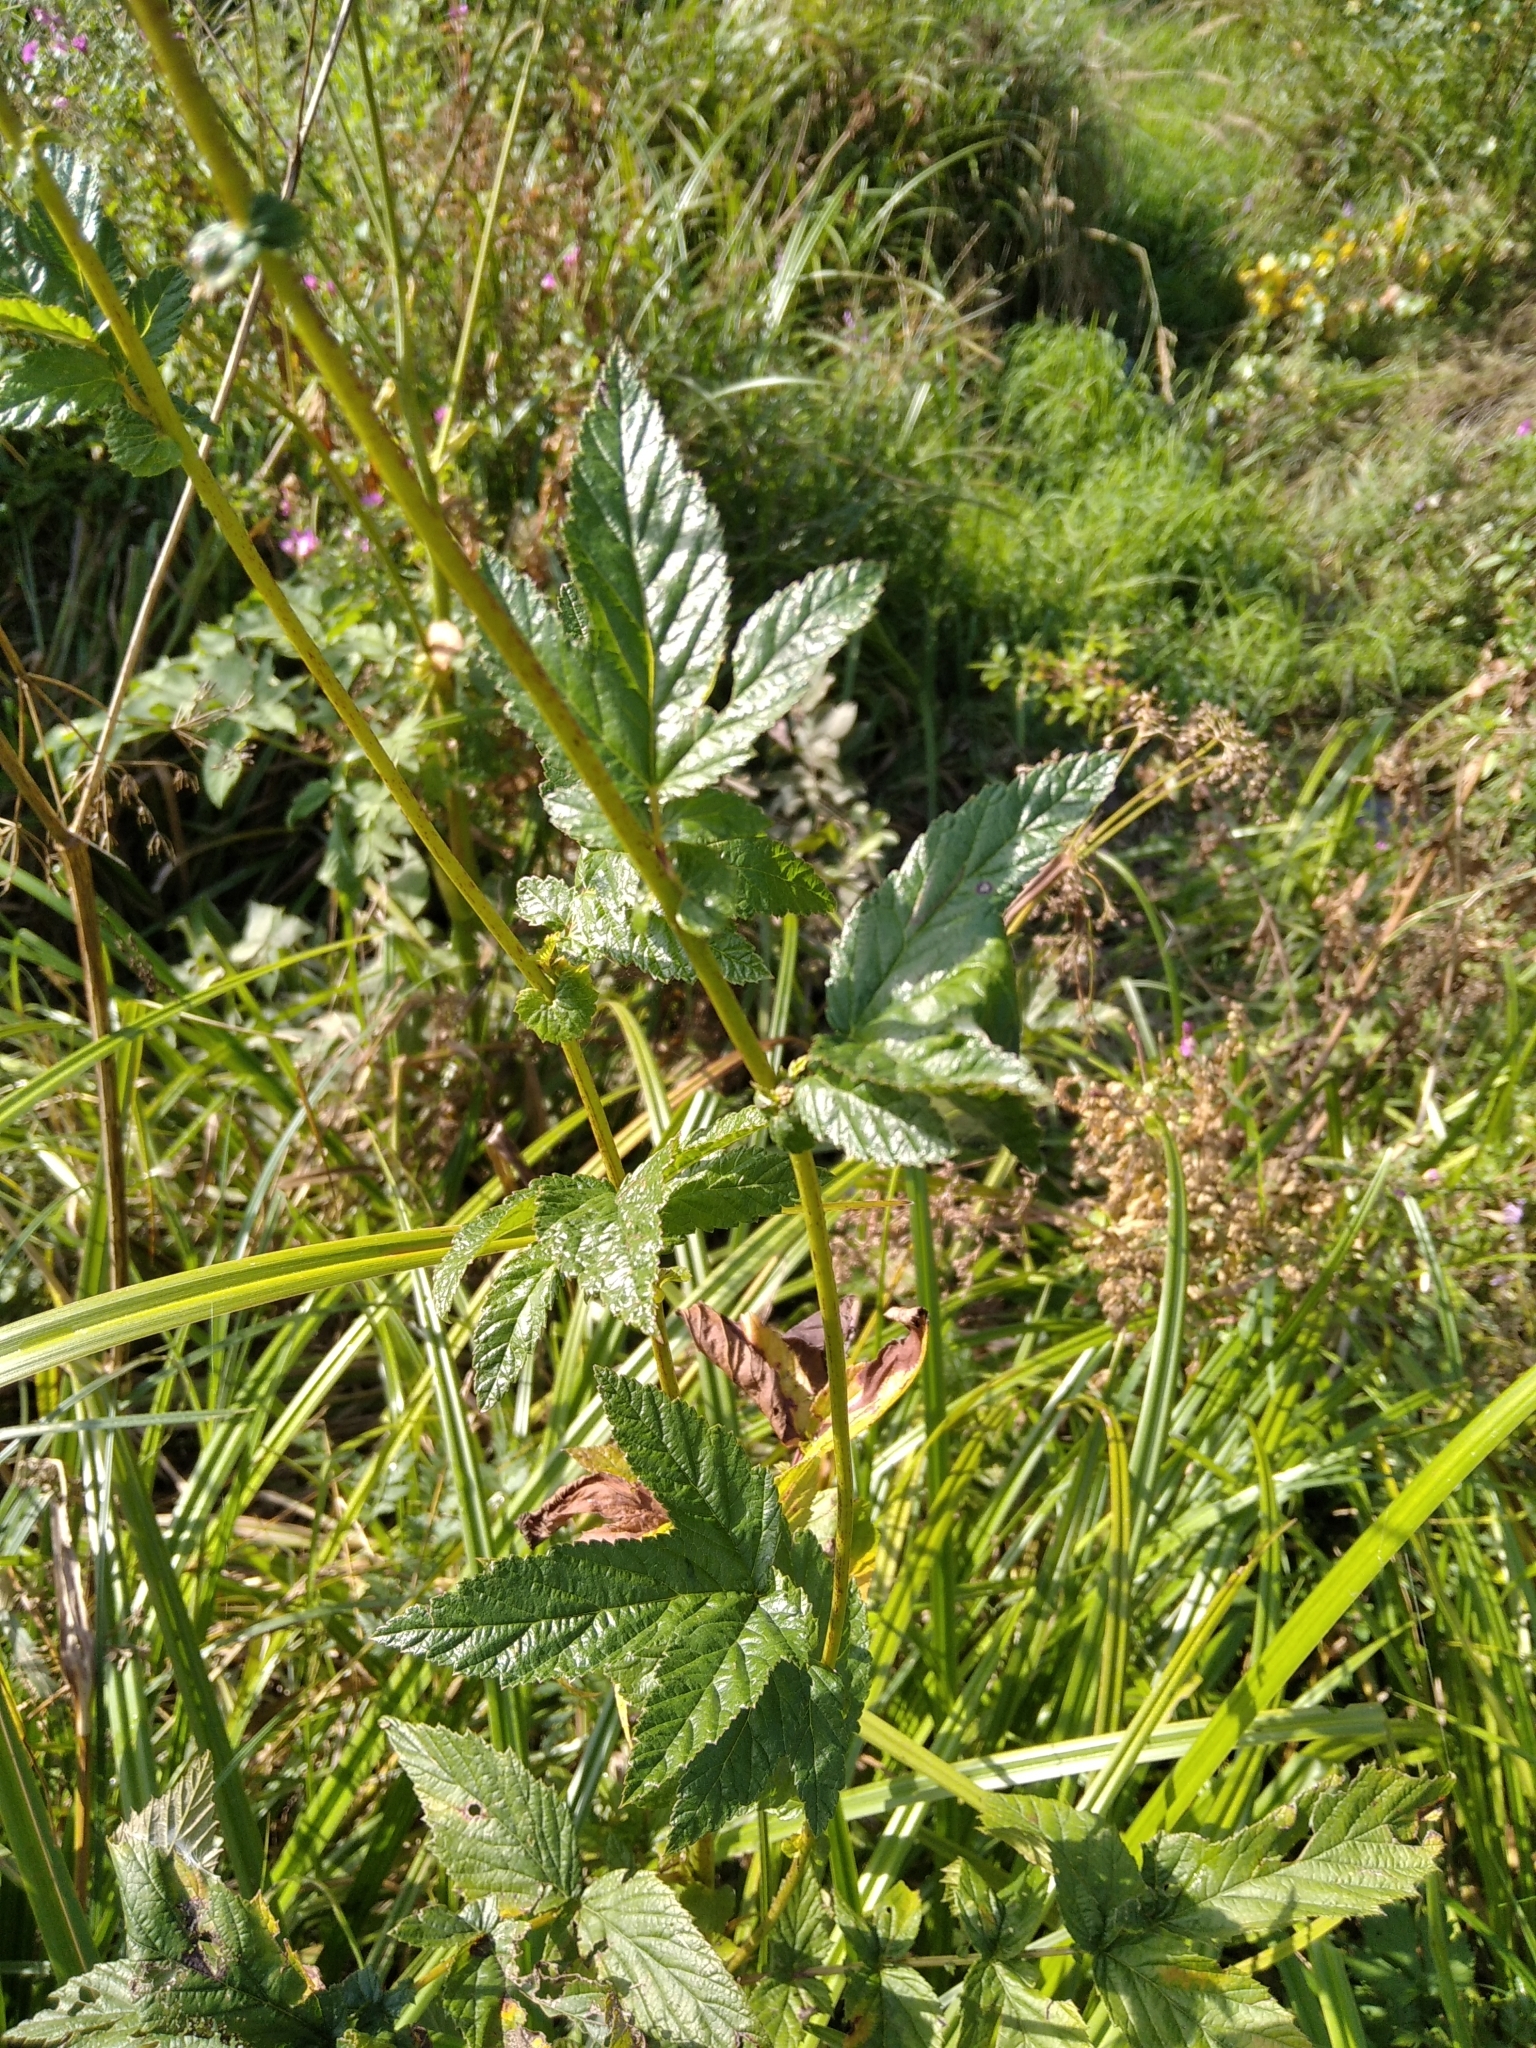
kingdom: Plantae
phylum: Tracheophyta
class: Magnoliopsida
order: Rosales
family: Rosaceae
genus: Filipendula
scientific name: Filipendula ulmaria
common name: Meadowsweet
